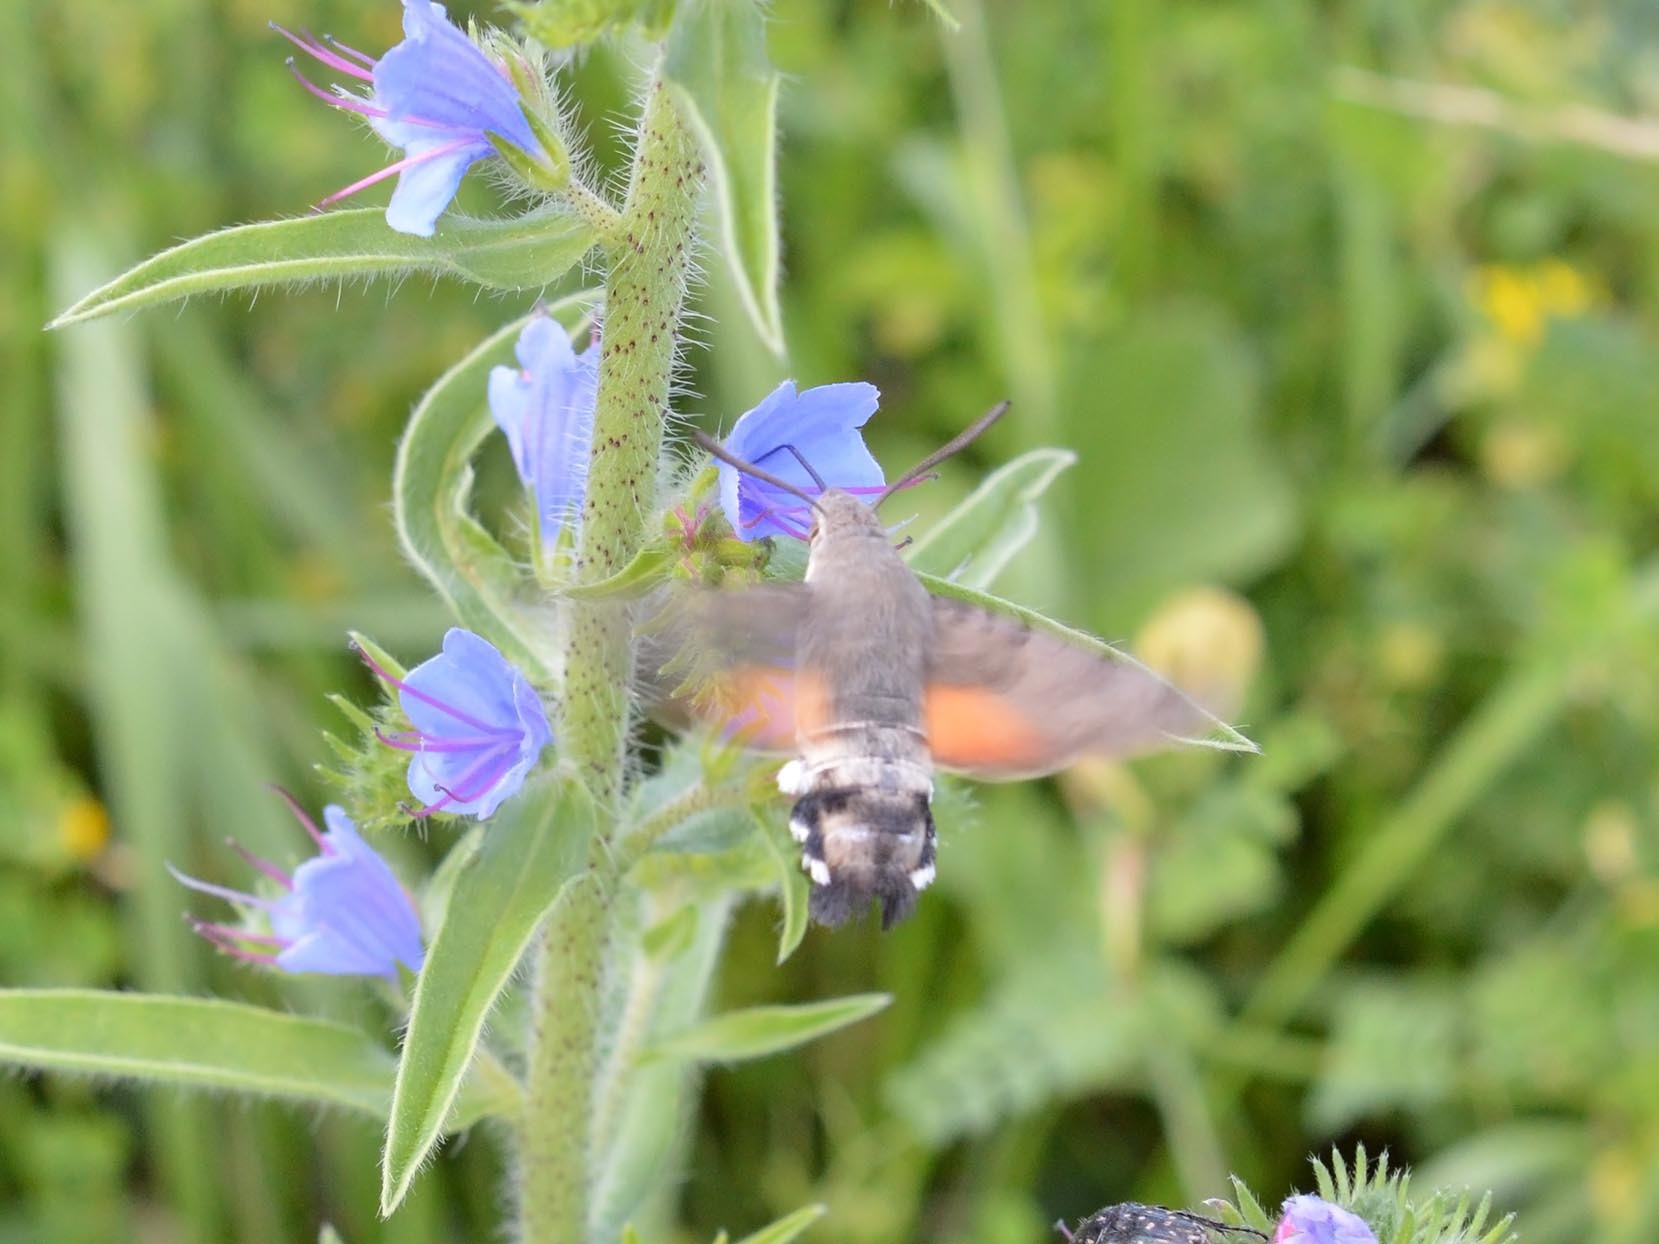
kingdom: Animalia
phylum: Arthropoda
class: Insecta
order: Lepidoptera
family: Sphingidae
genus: Macroglossum
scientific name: Macroglossum stellatarum
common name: Humming-bird hawk-moth
